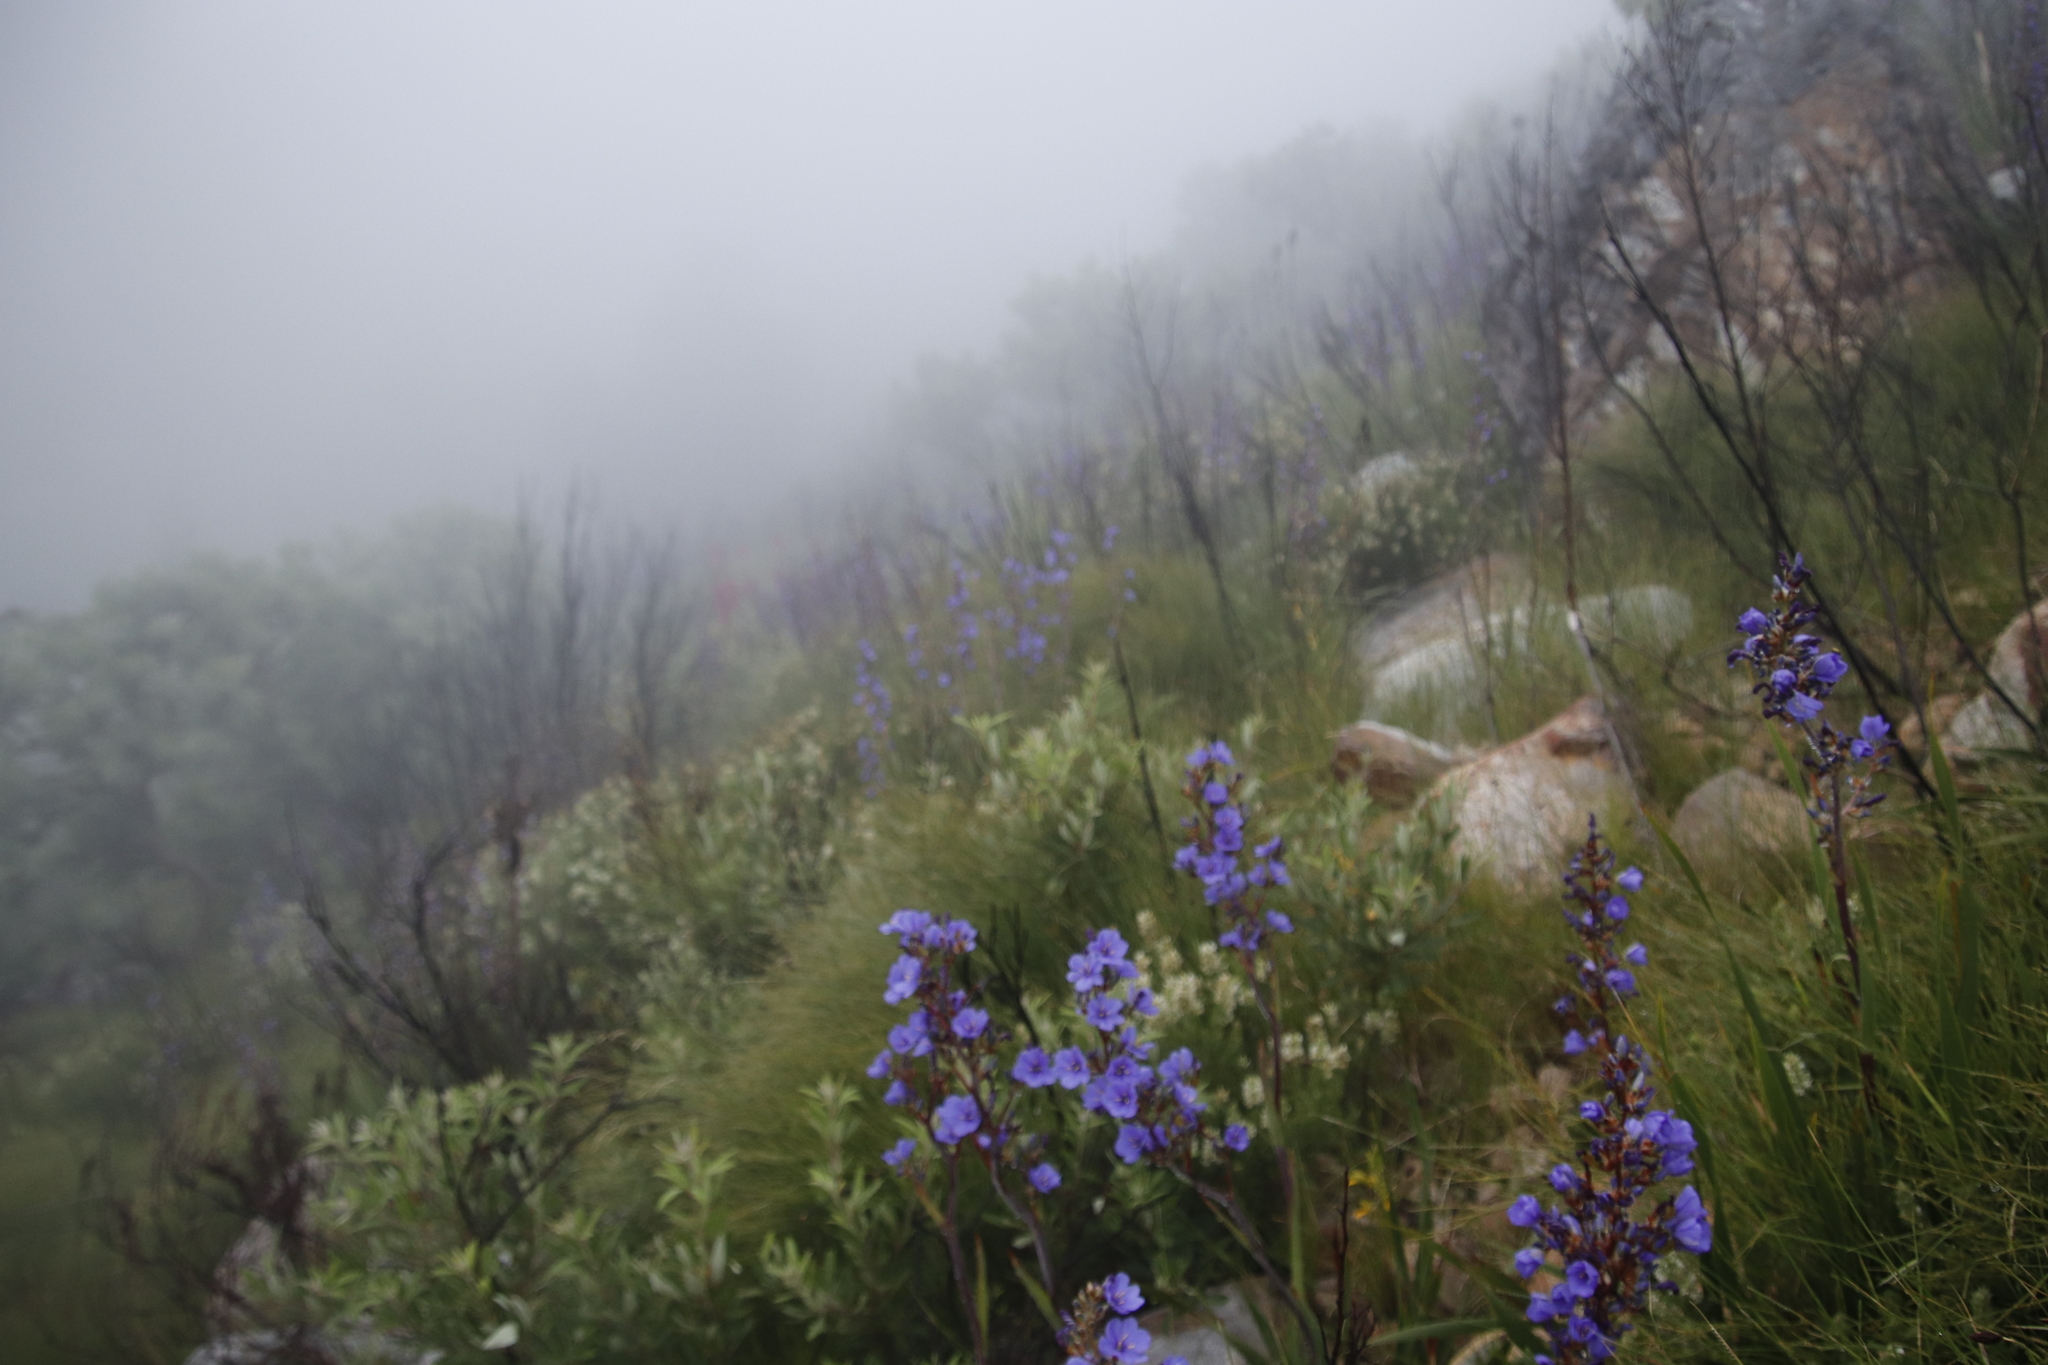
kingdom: Plantae
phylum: Tracheophyta
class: Liliopsida
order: Asparagales
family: Iridaceae
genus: Aristea
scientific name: Aristea bakeri
